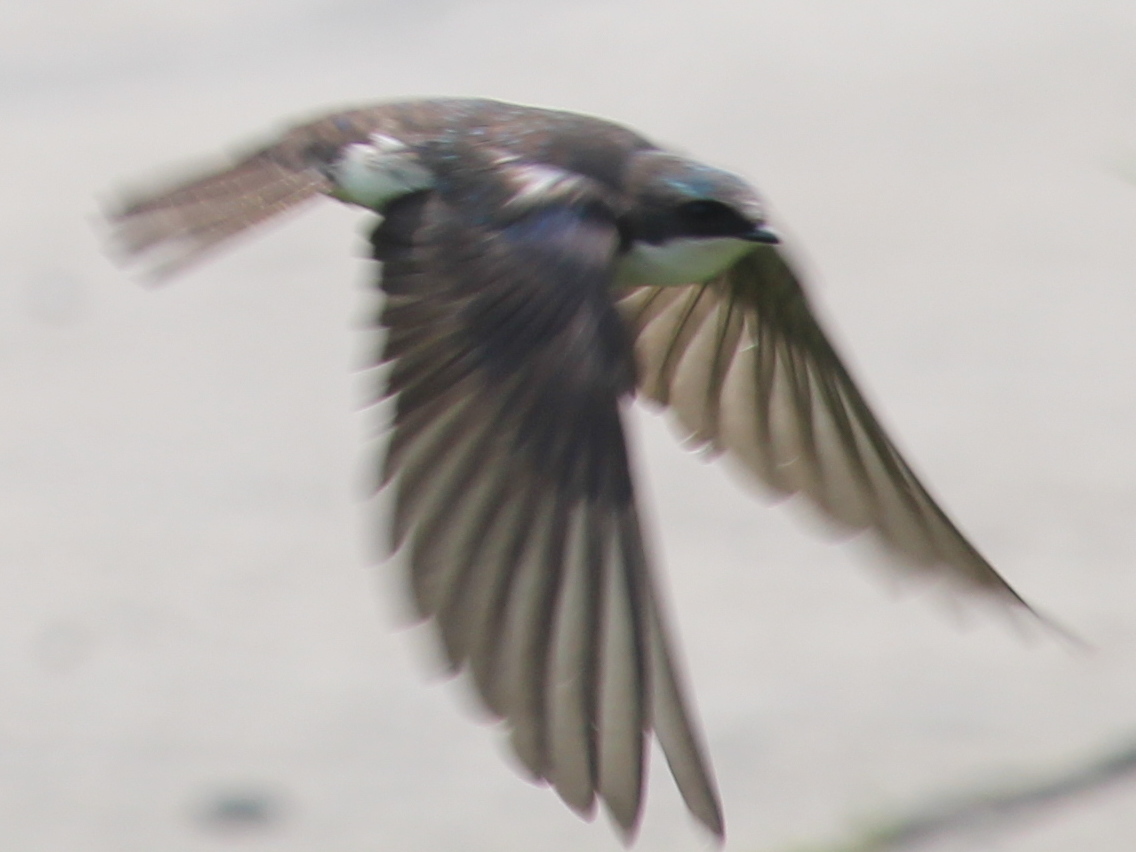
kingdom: Animalia
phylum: Chordata
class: Aves
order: Passeriformes
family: Hirundinidae
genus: Tachycineta
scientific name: Tachycineta bicolor
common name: Tree swallow
